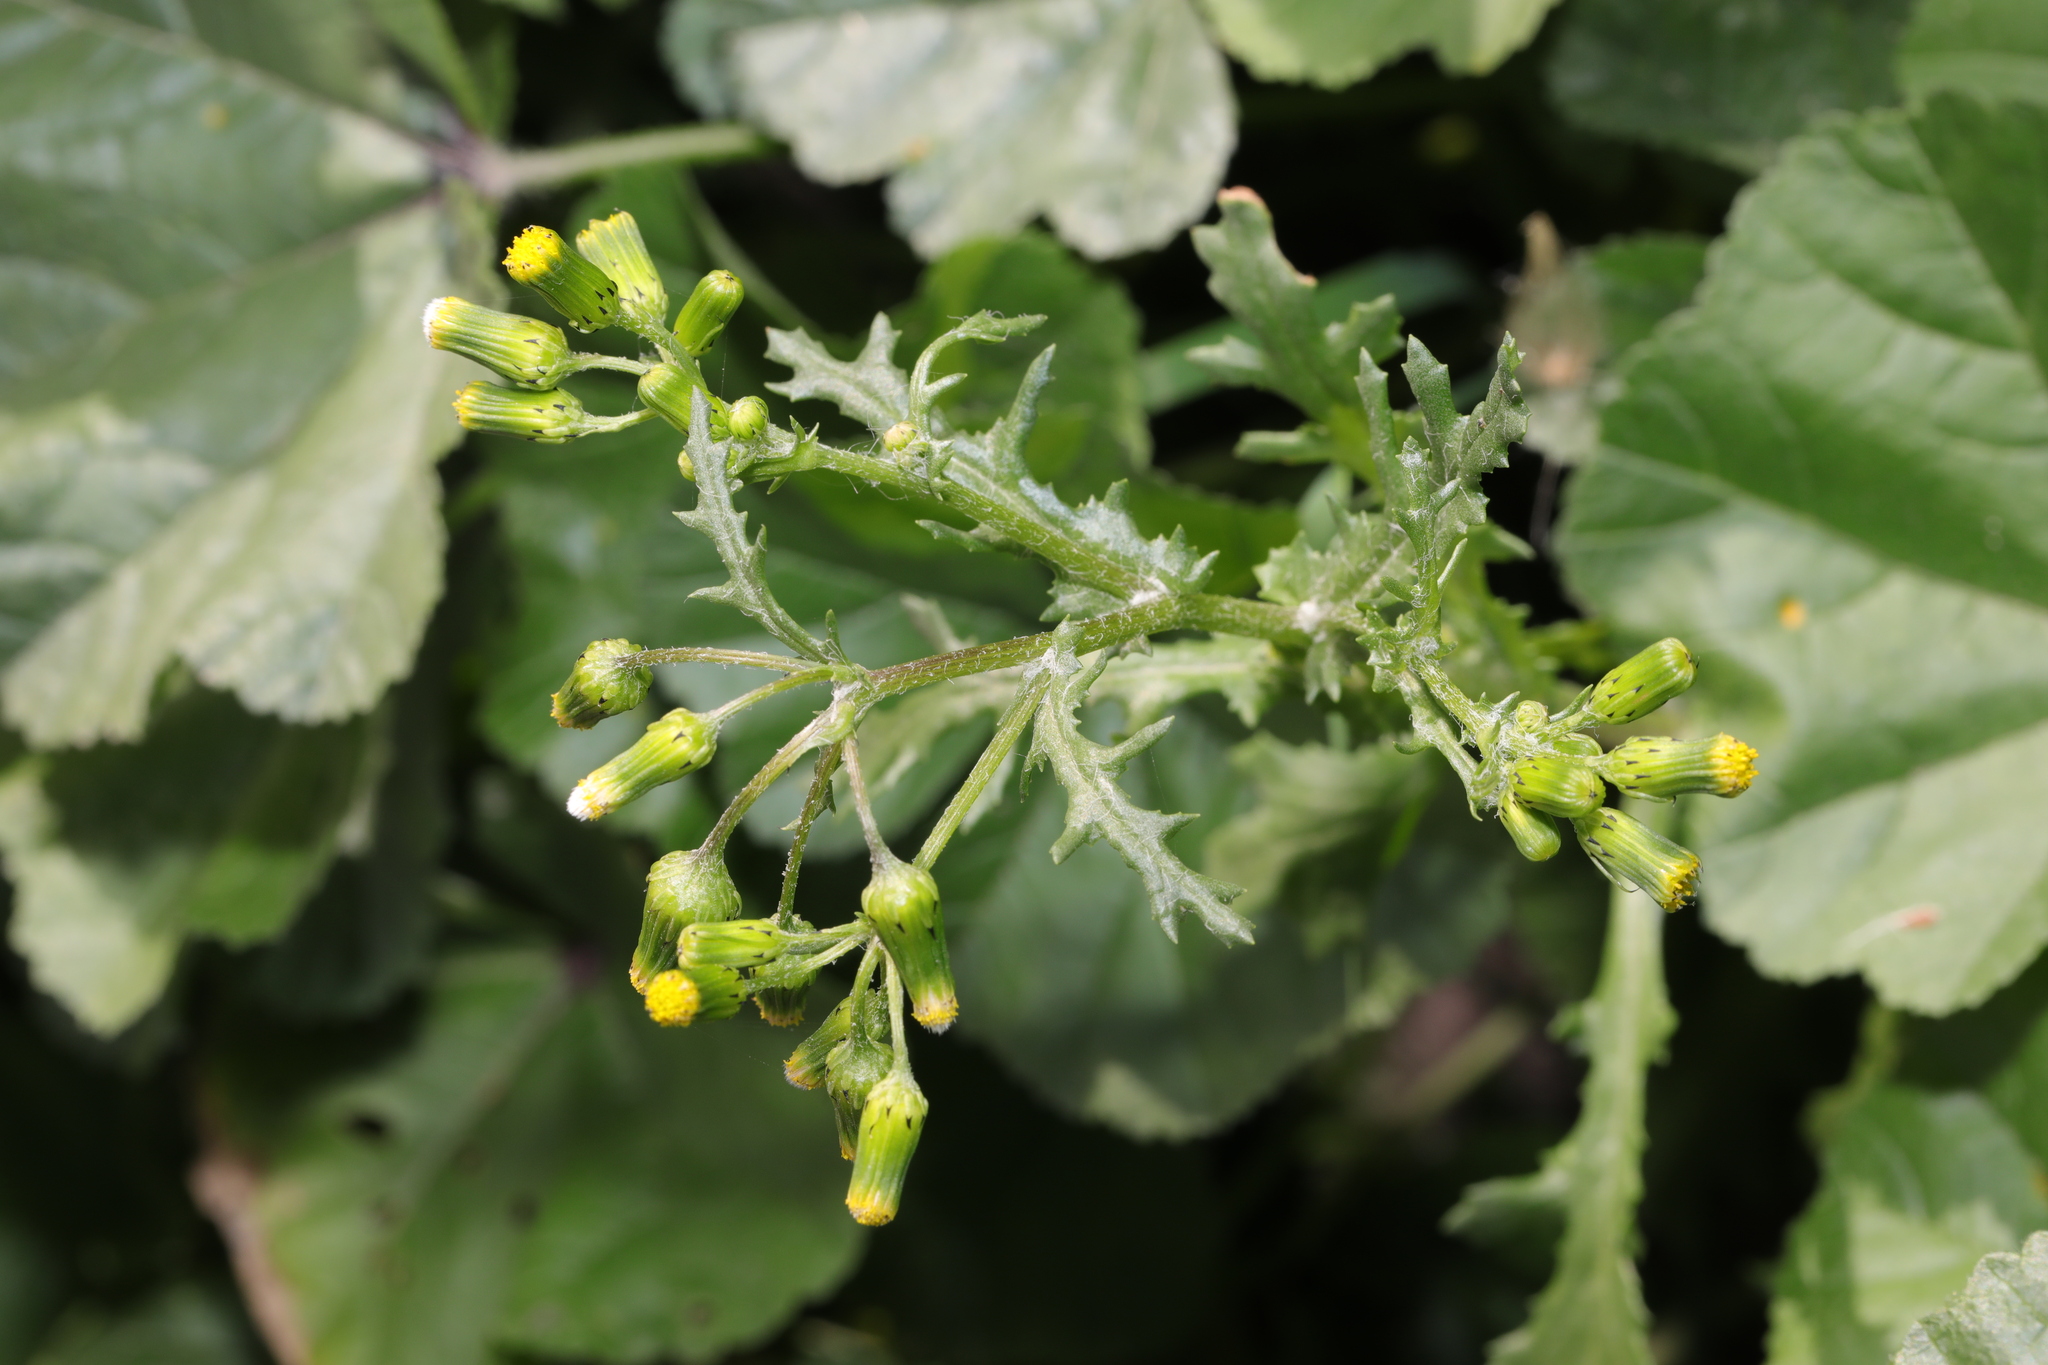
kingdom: Plantae
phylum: Tracheophyta
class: Magnoliopsida
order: Asterales
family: Asteraceae
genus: Senecio
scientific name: Senecio vulgaris
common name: Old-man-in-the-spring
